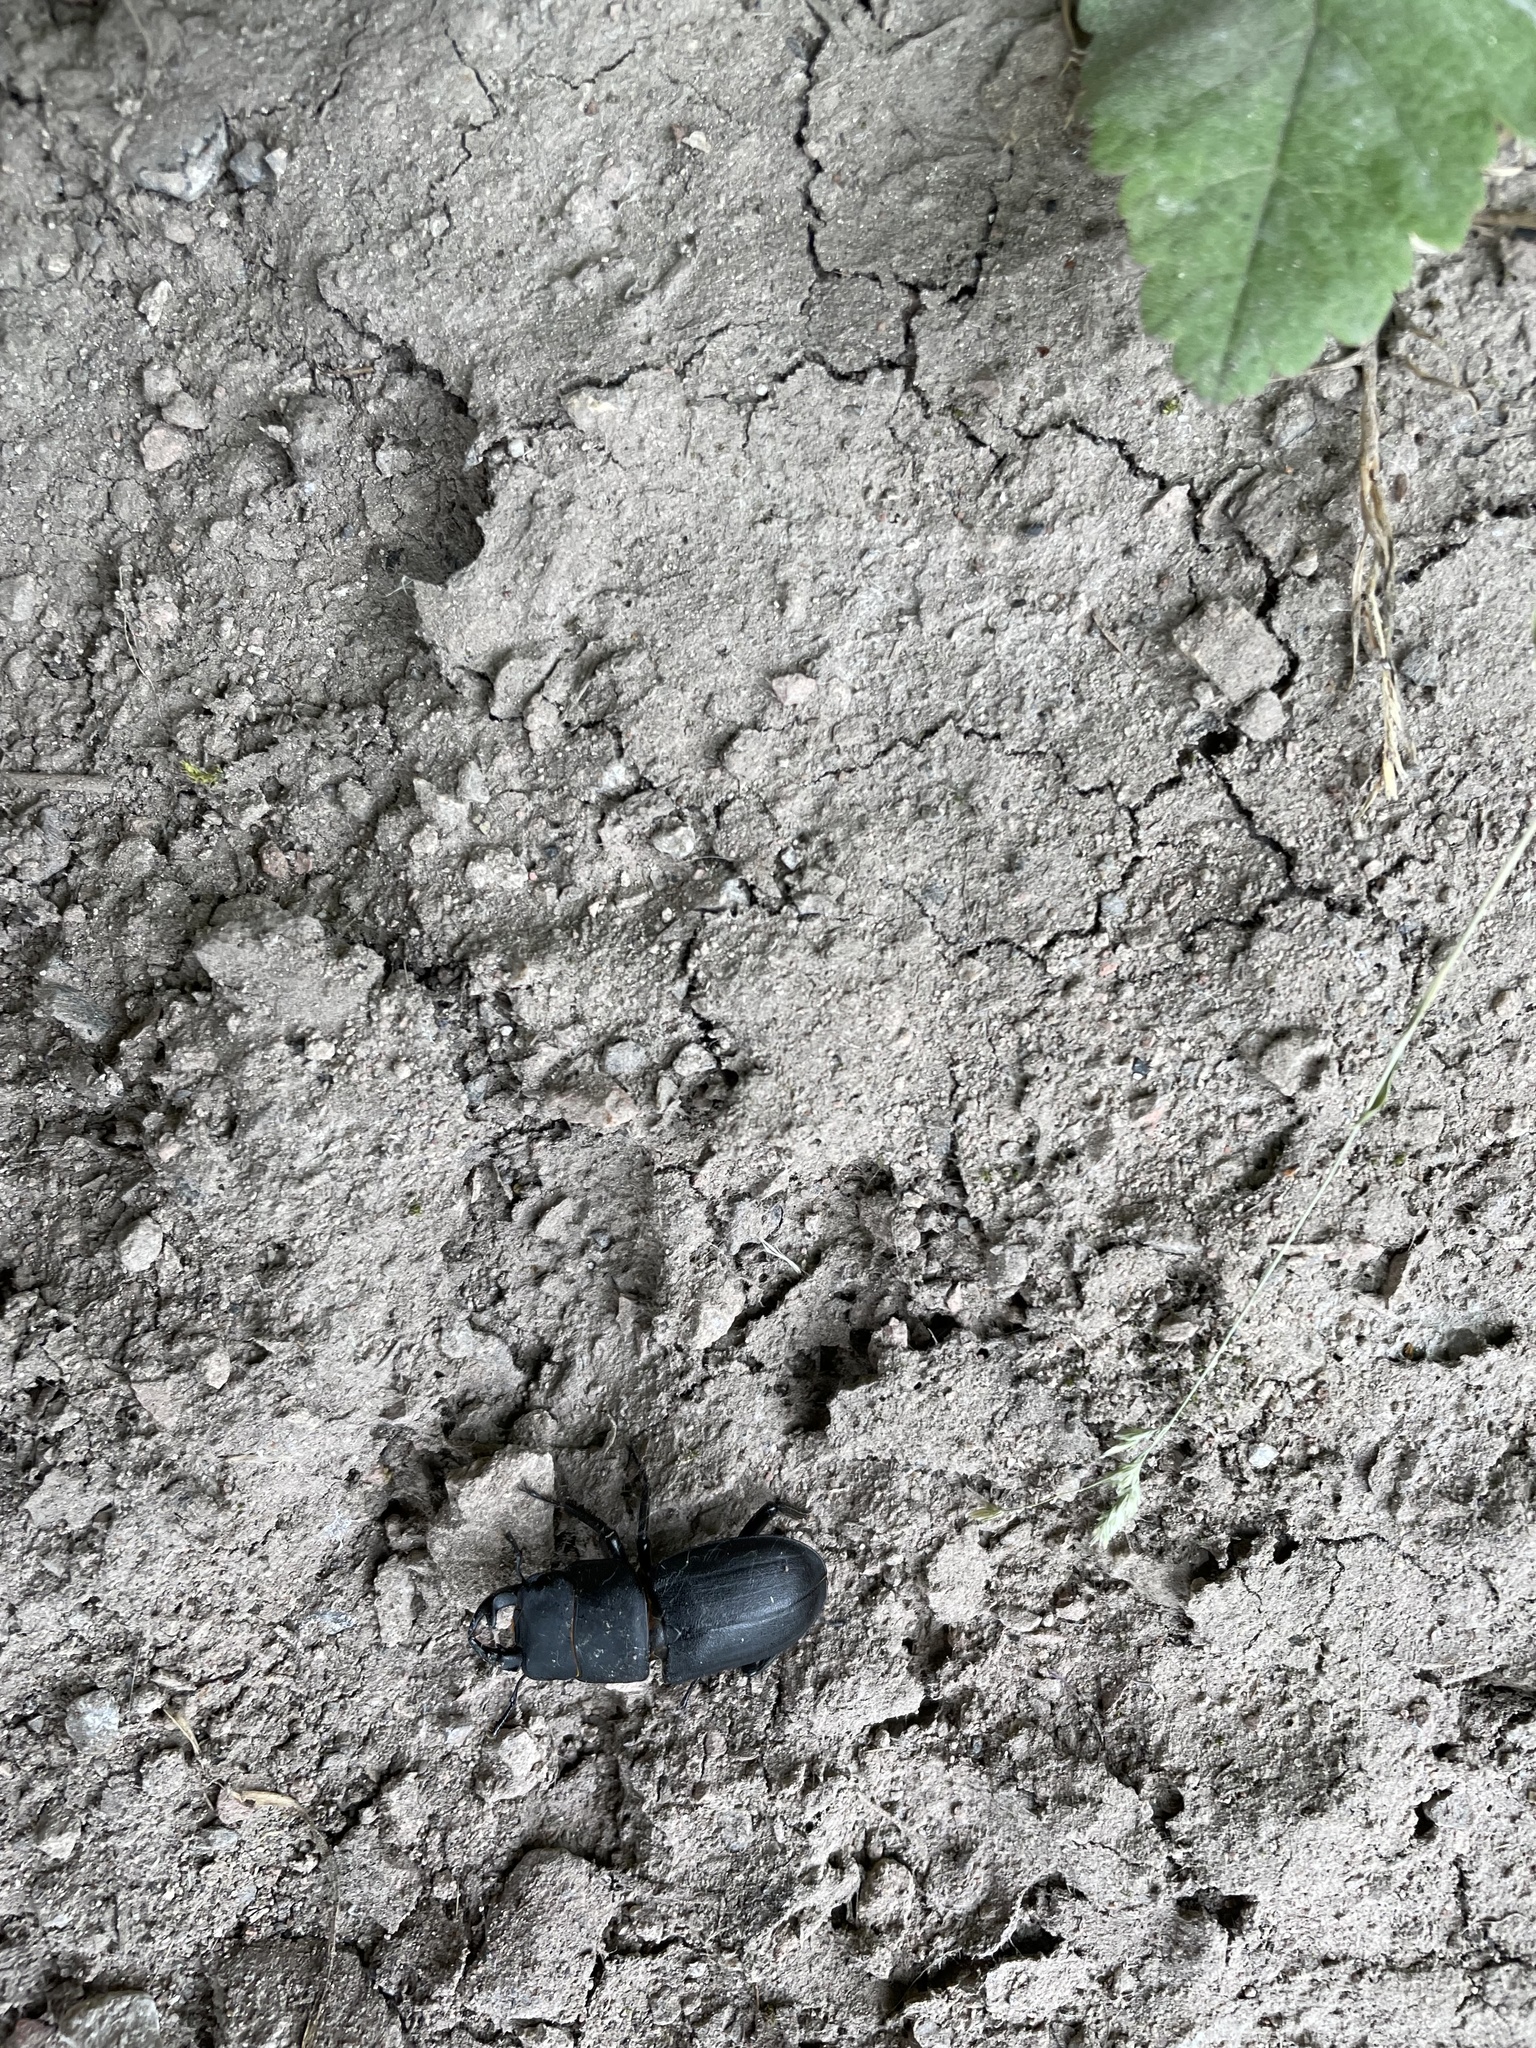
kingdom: Animalia
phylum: Arthropoda
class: Insecta
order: Coleoptera
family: Lucanidae
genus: Dorcus
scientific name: Dorcus parallelipipedus
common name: Lesser stag beetle
